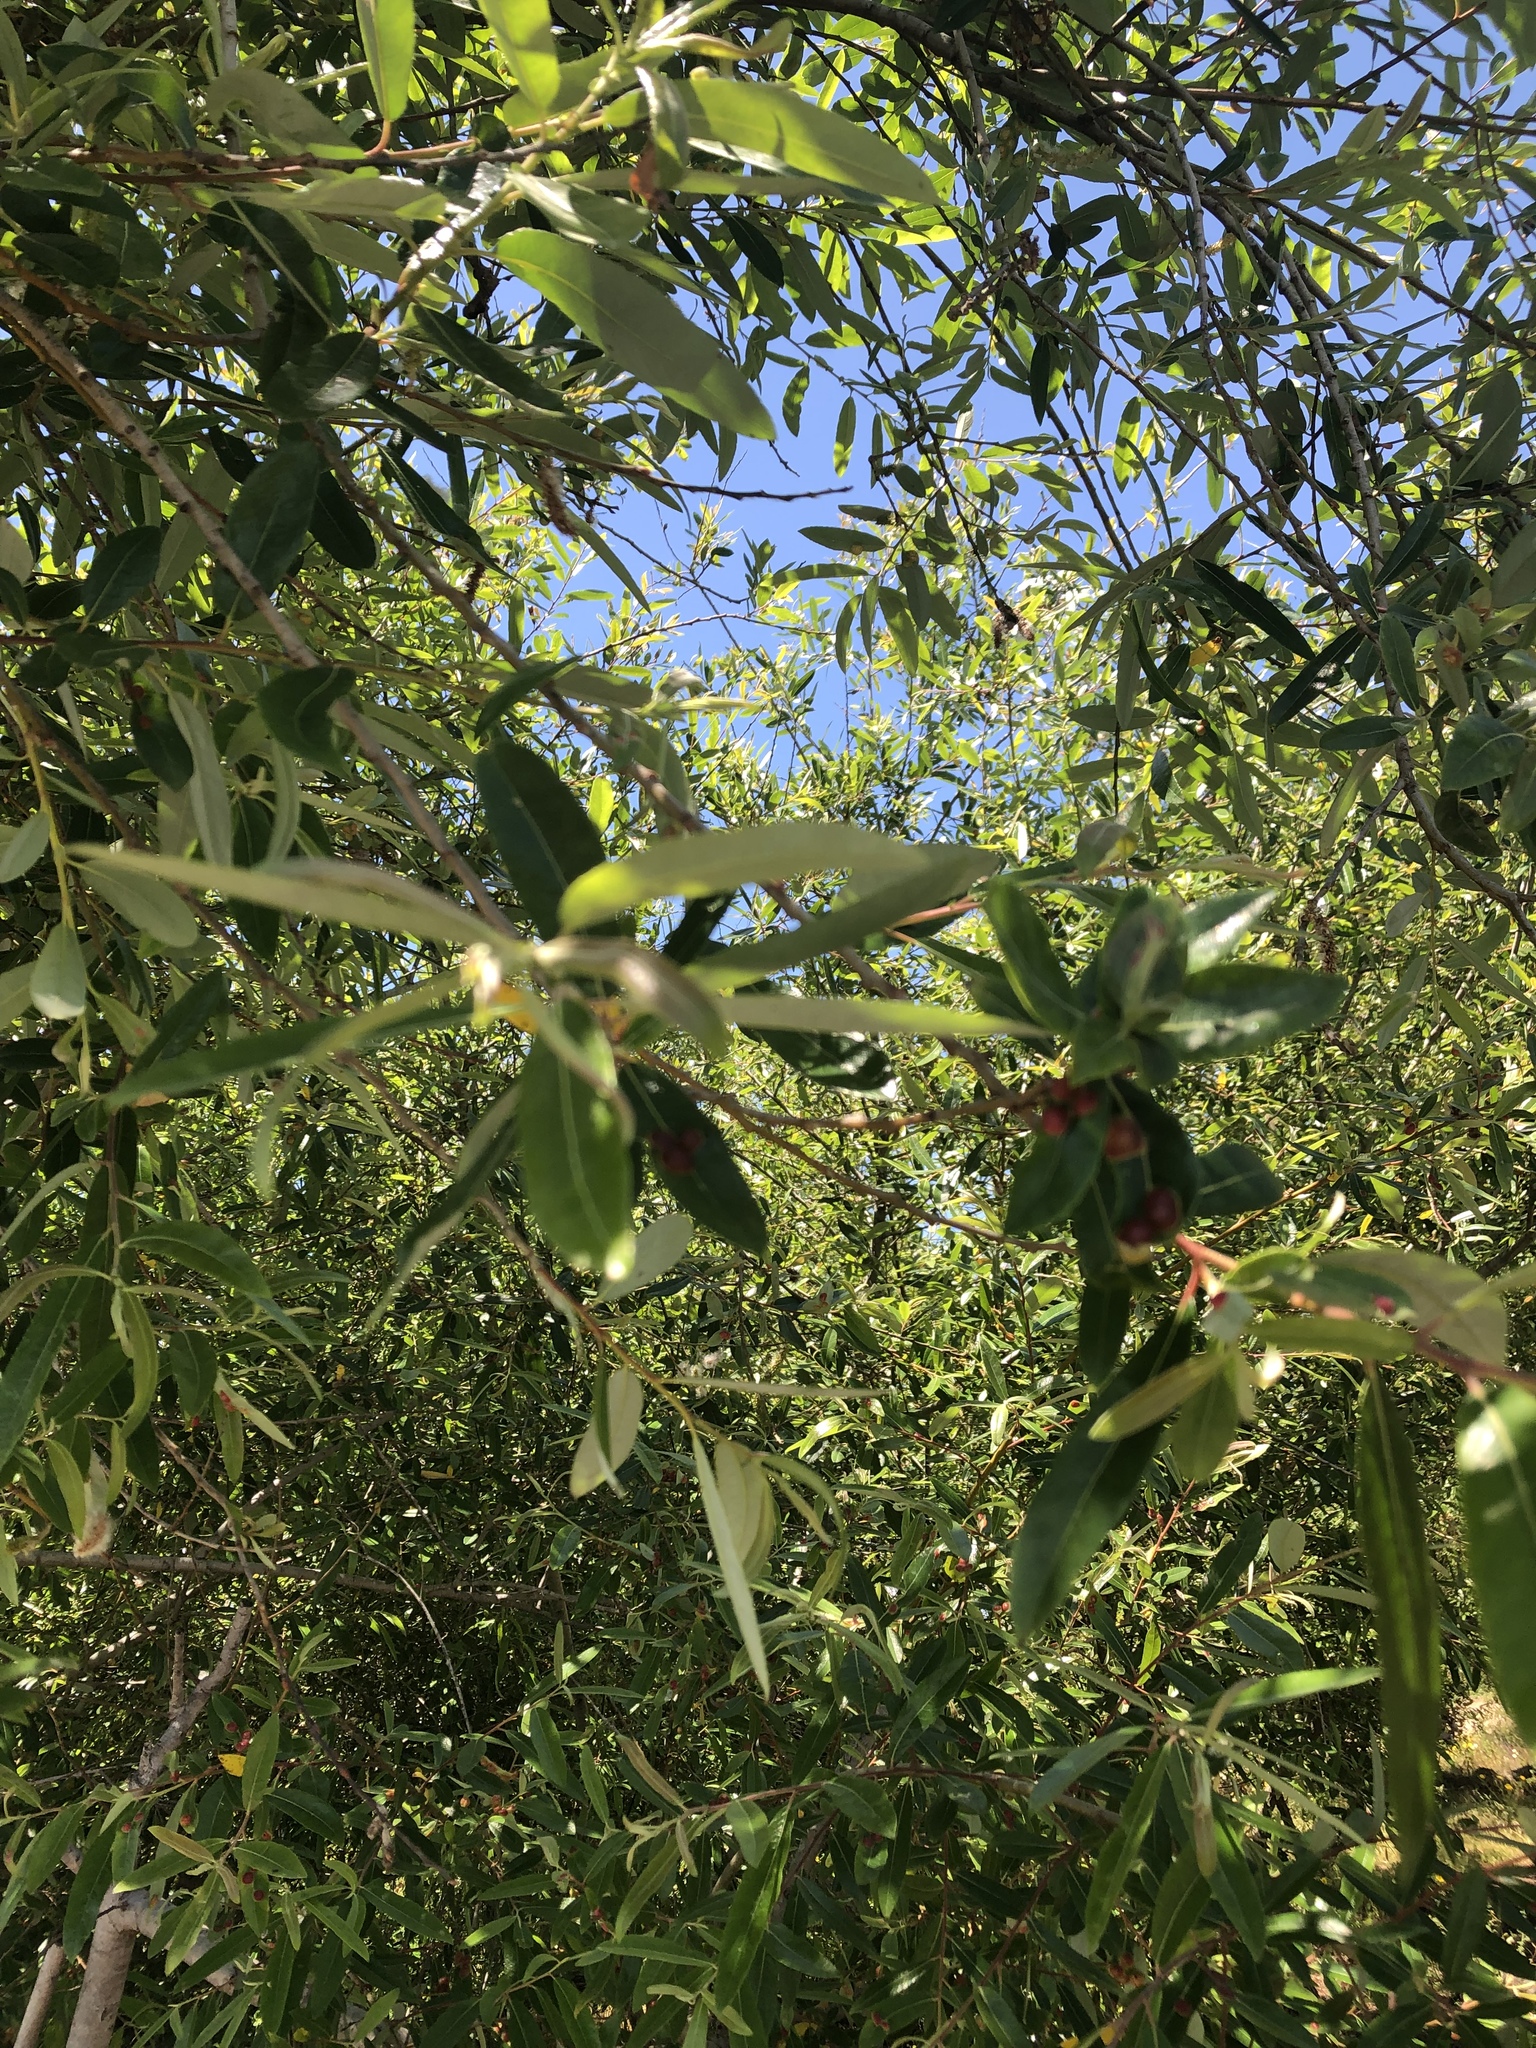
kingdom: Plantae
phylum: Tracheophyta
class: Magnoliopsida
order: Malpighiales
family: Salicaceae
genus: Salix
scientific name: Salix lasiolepis
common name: Arroyo willow
